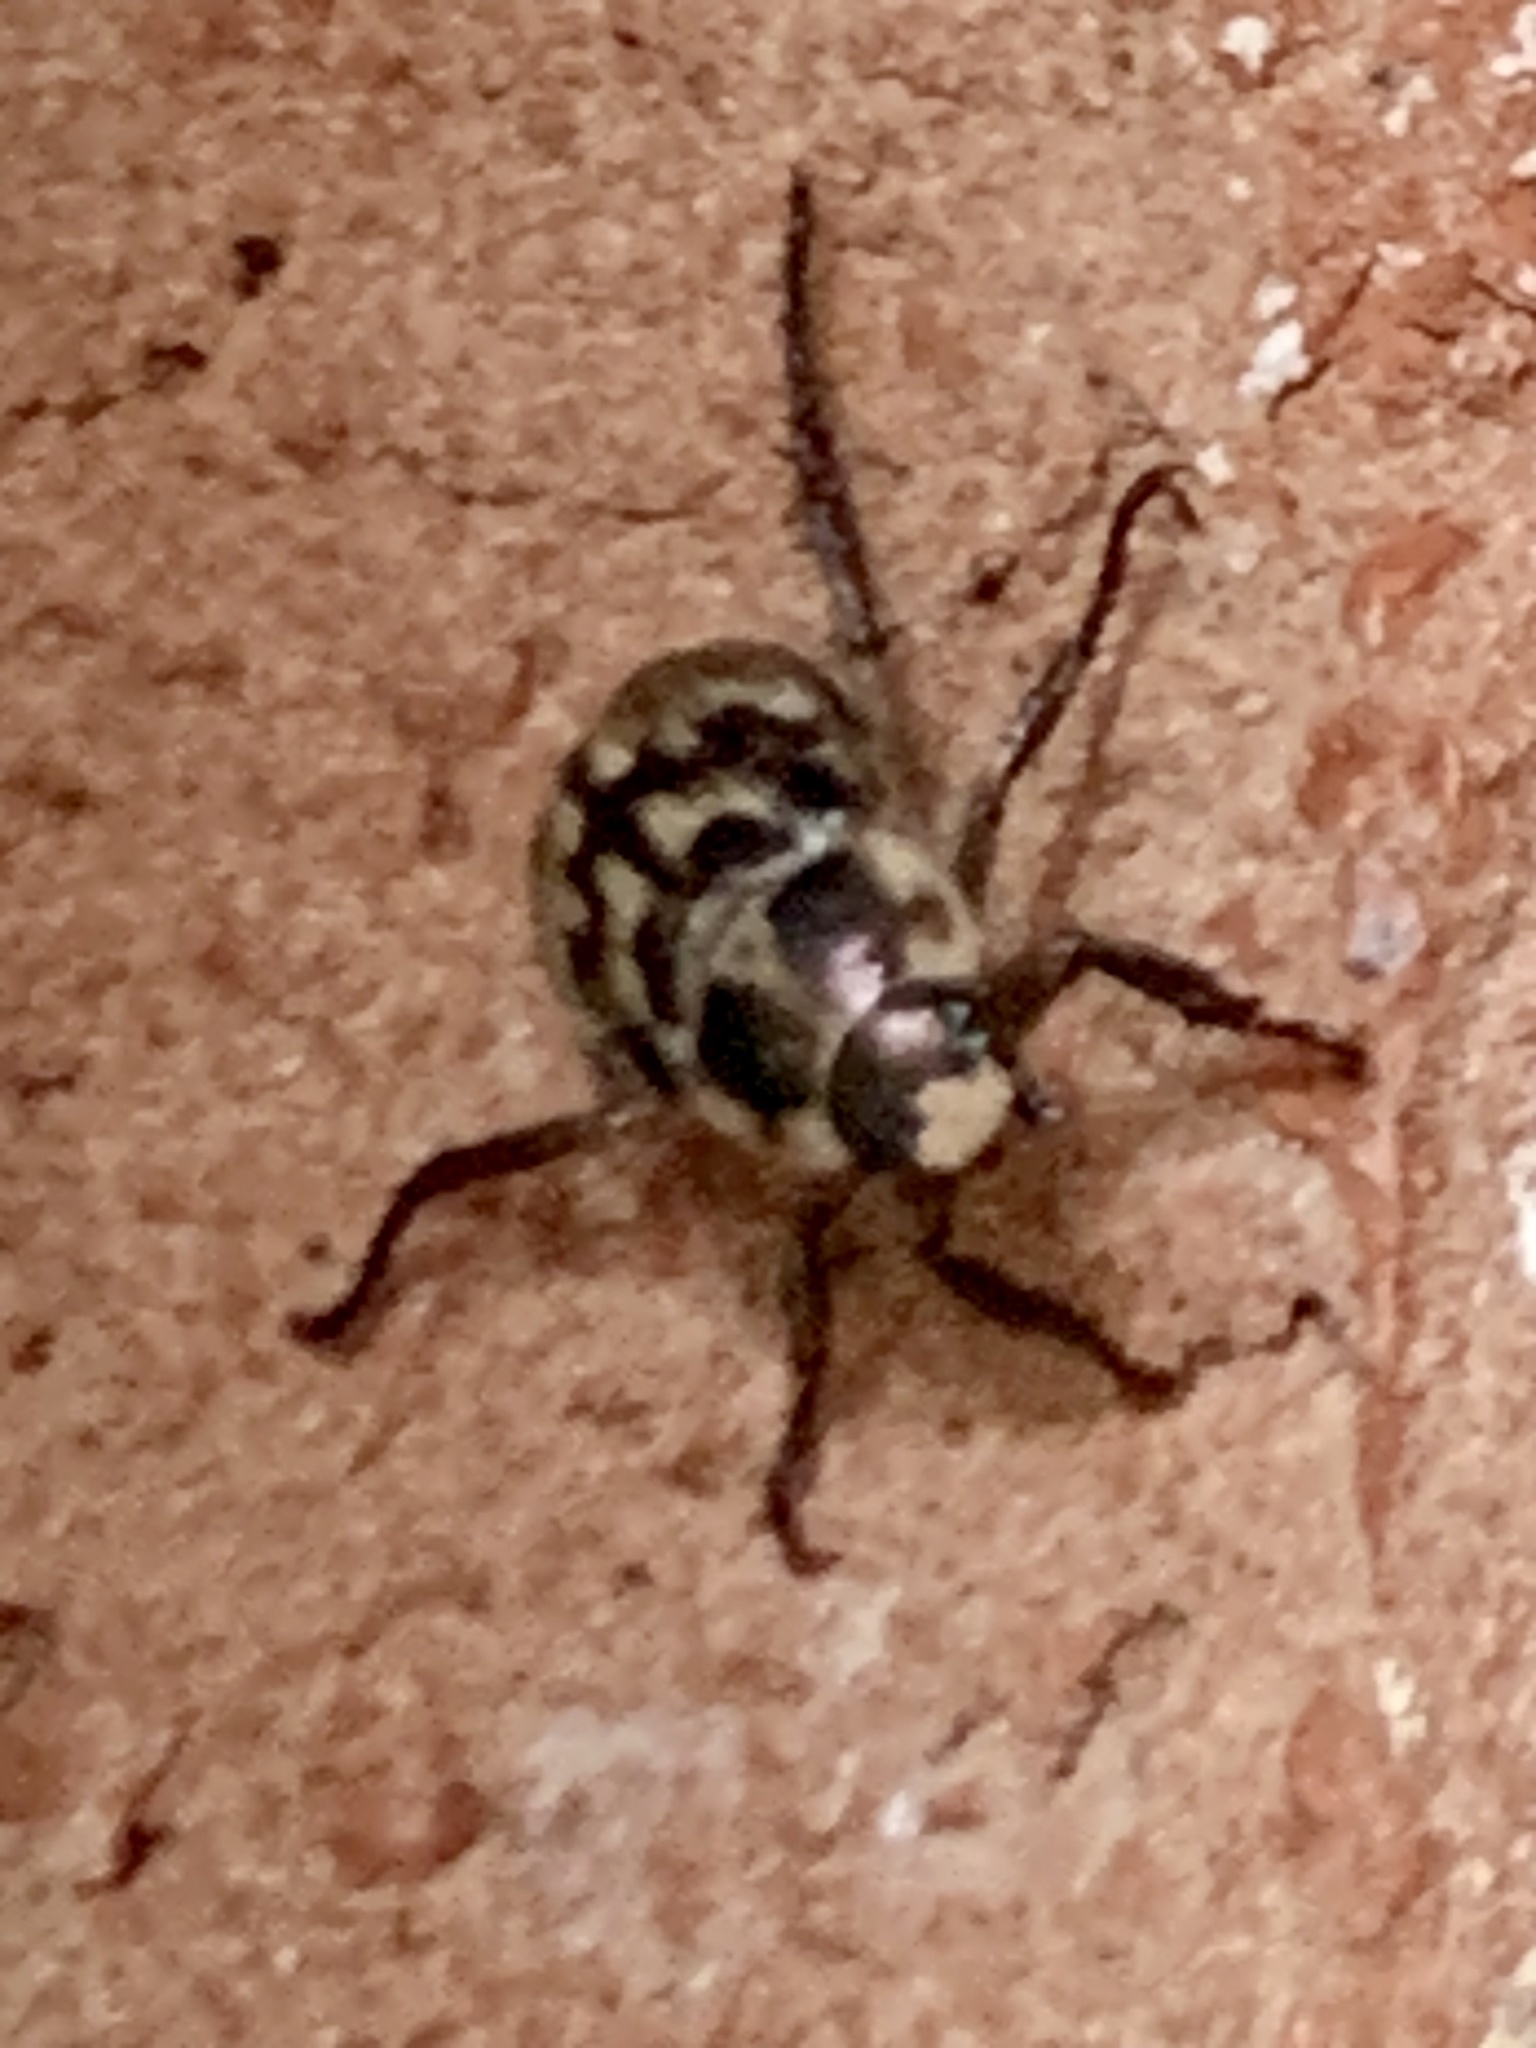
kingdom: Animalia
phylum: Arthropoda
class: Insecta
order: Coleoptera
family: Scarabaeidae
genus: Exomala
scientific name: Exomala orientalis
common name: Oriental beetle
